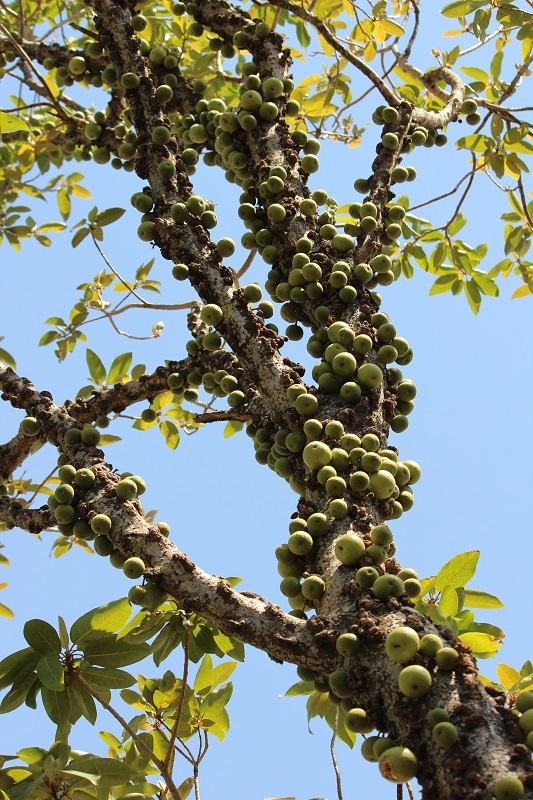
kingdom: Plantae
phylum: Tracheophyta
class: Magnoliopsida
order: Rosales
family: Moraceae
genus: Ficus
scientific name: Ficus sansibarica
